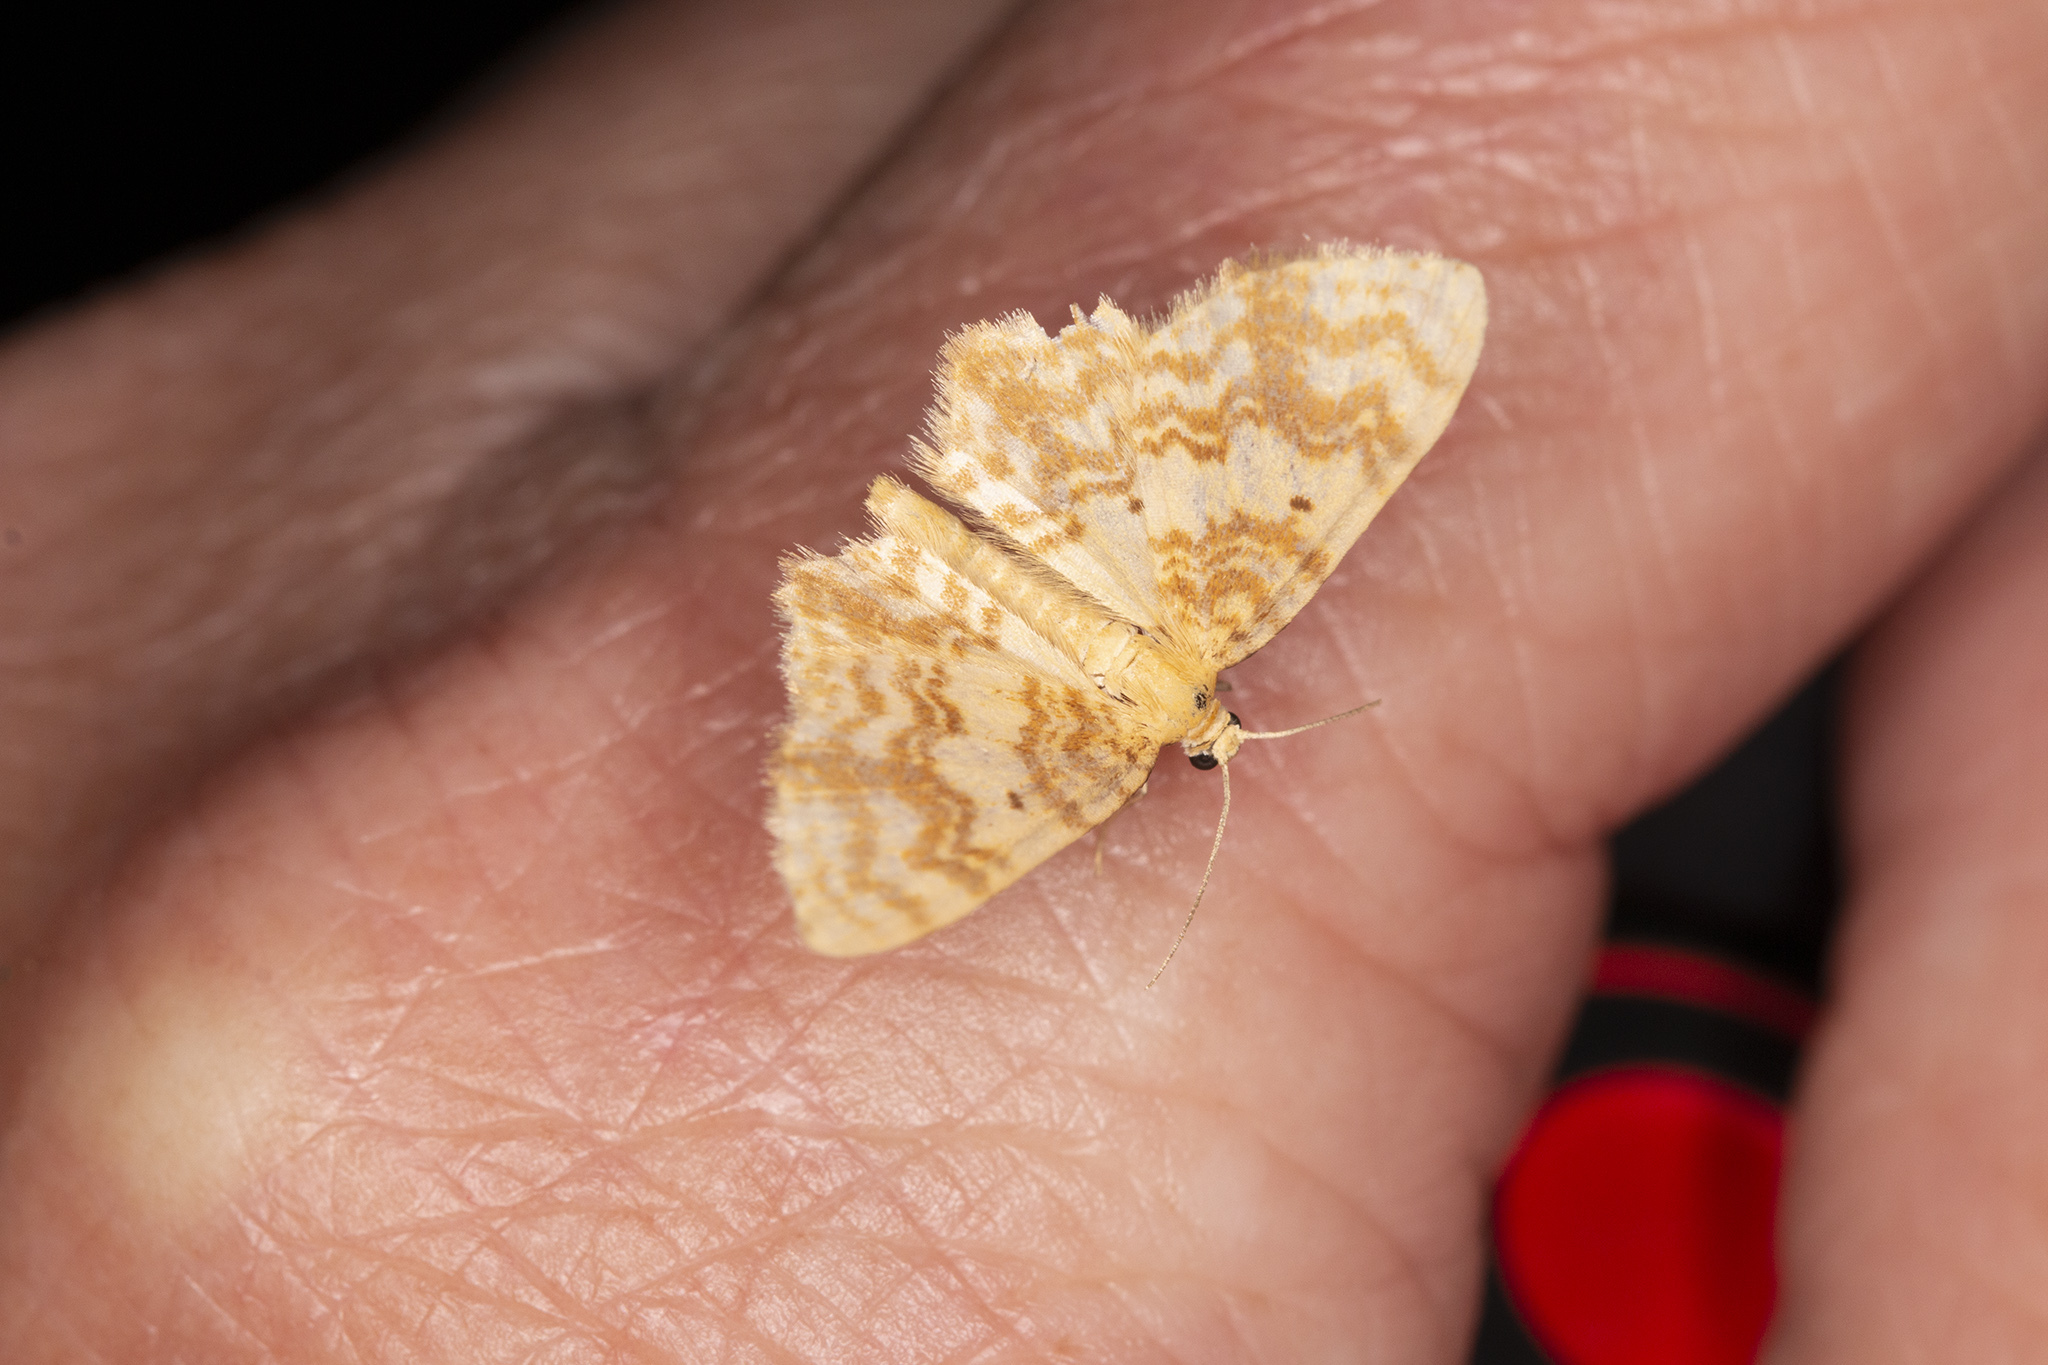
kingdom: Animalia
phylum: Arthropoda
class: Insecta
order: Lepidoptera
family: Geometridae
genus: Hydrelia
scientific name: Hydrelia flammeolaria
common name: Small yellow wave
